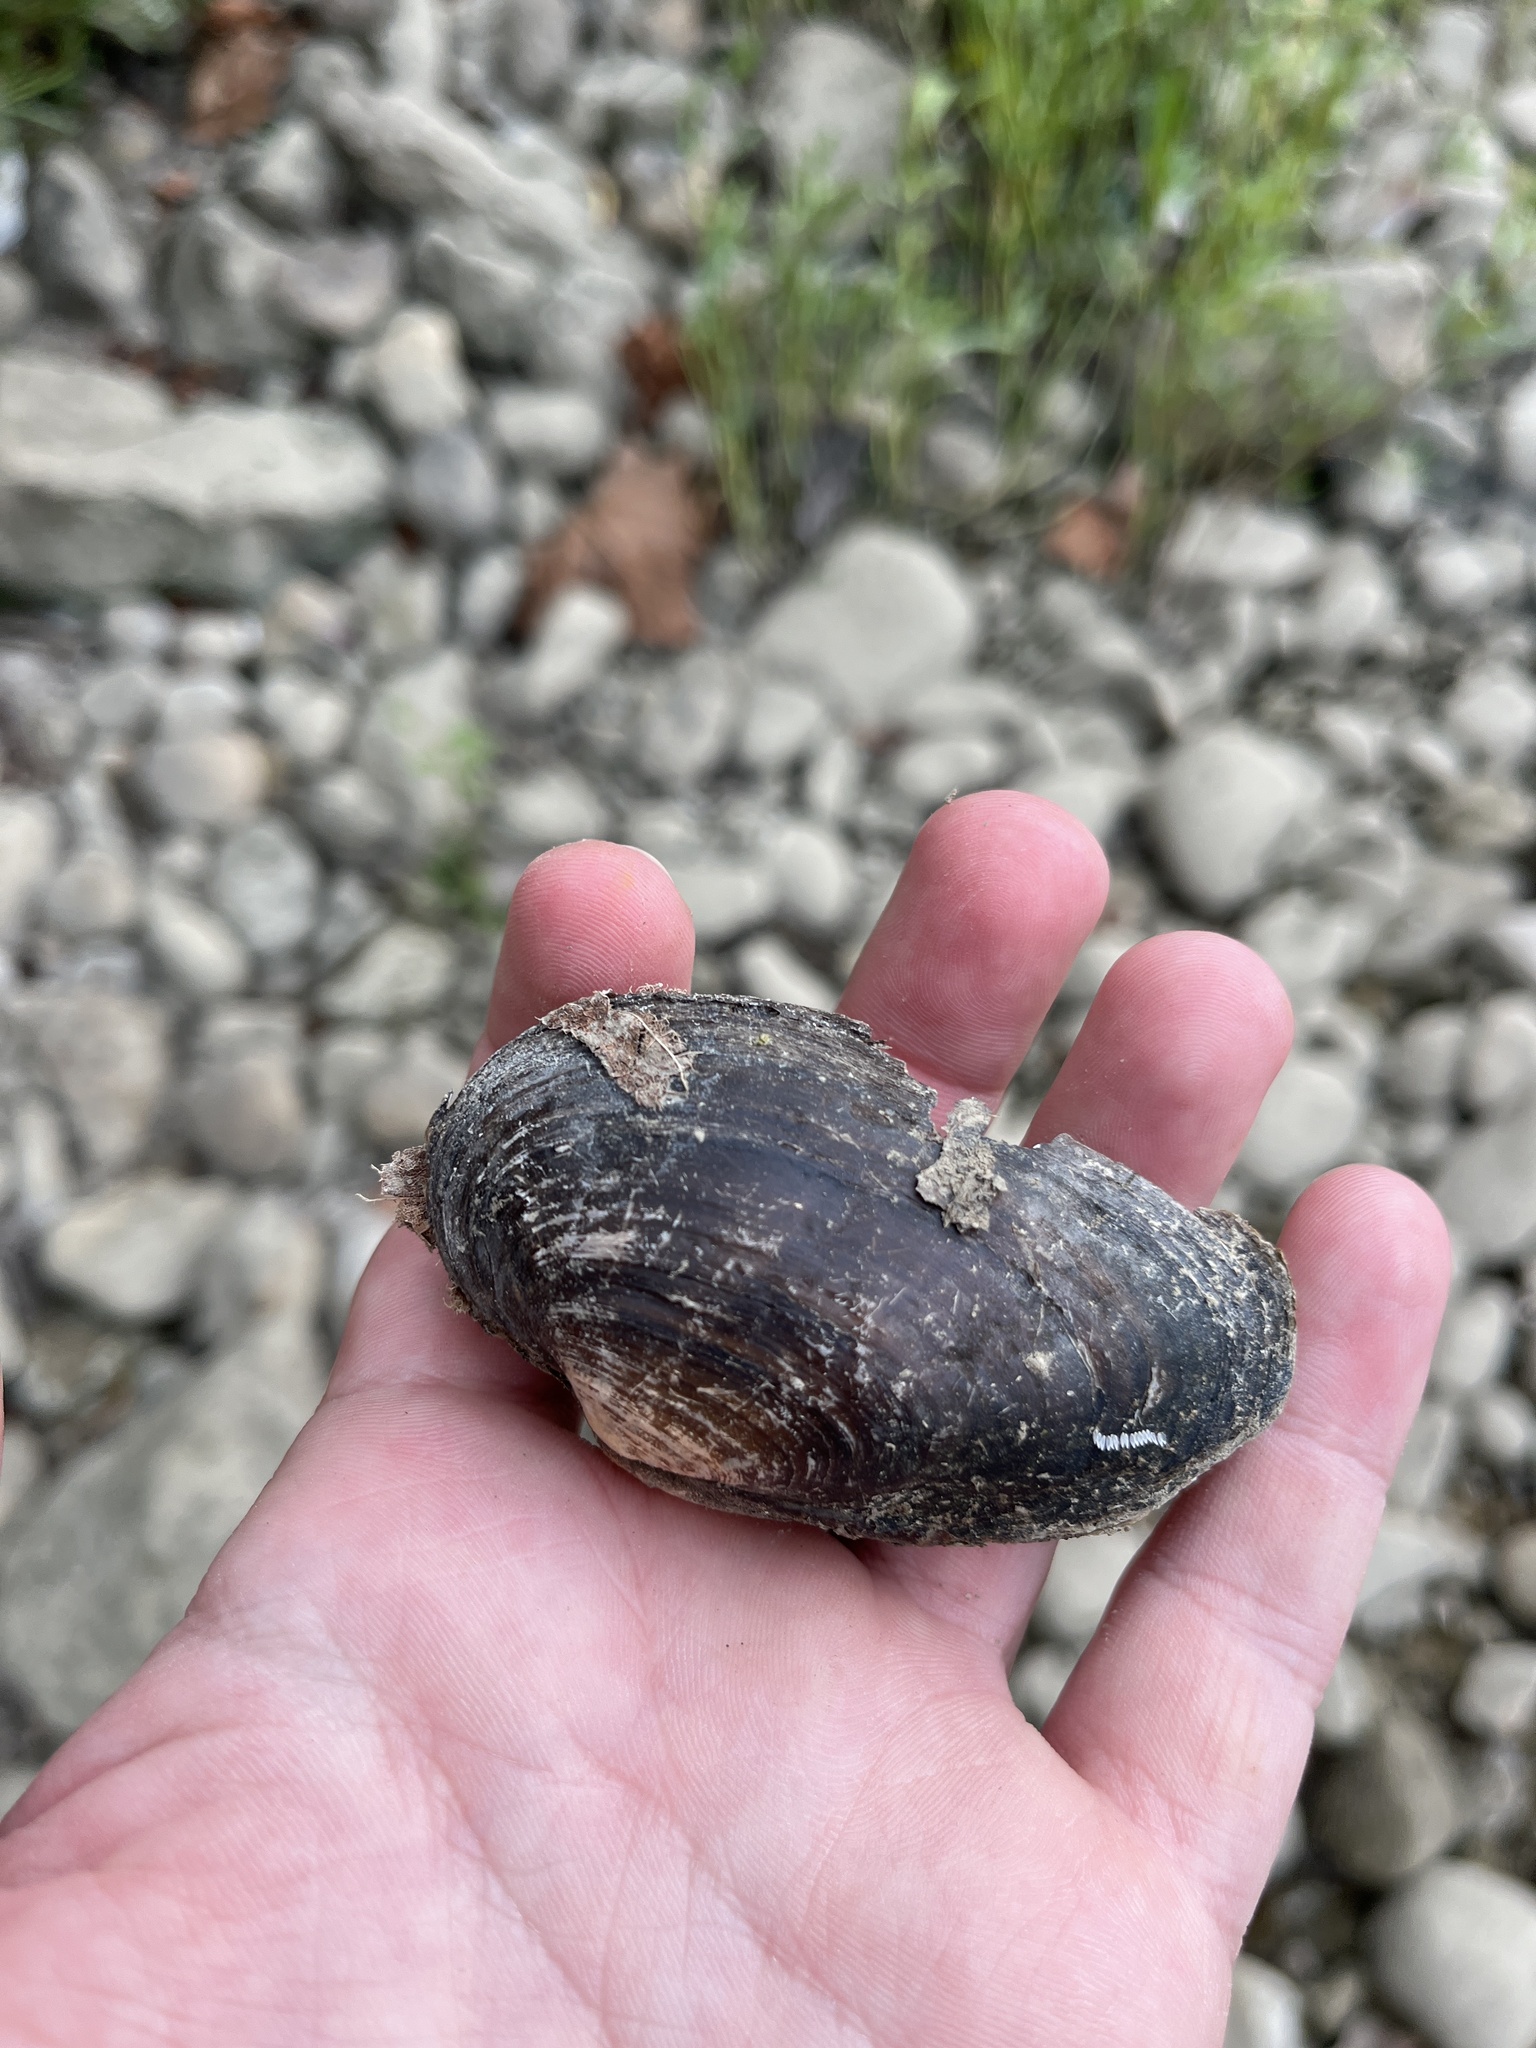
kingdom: Animalia
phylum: Mollusca
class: Bivalvia
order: Unionida
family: Unionidae
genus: Strophitus
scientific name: Strophitus undulatus
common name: Creeper
